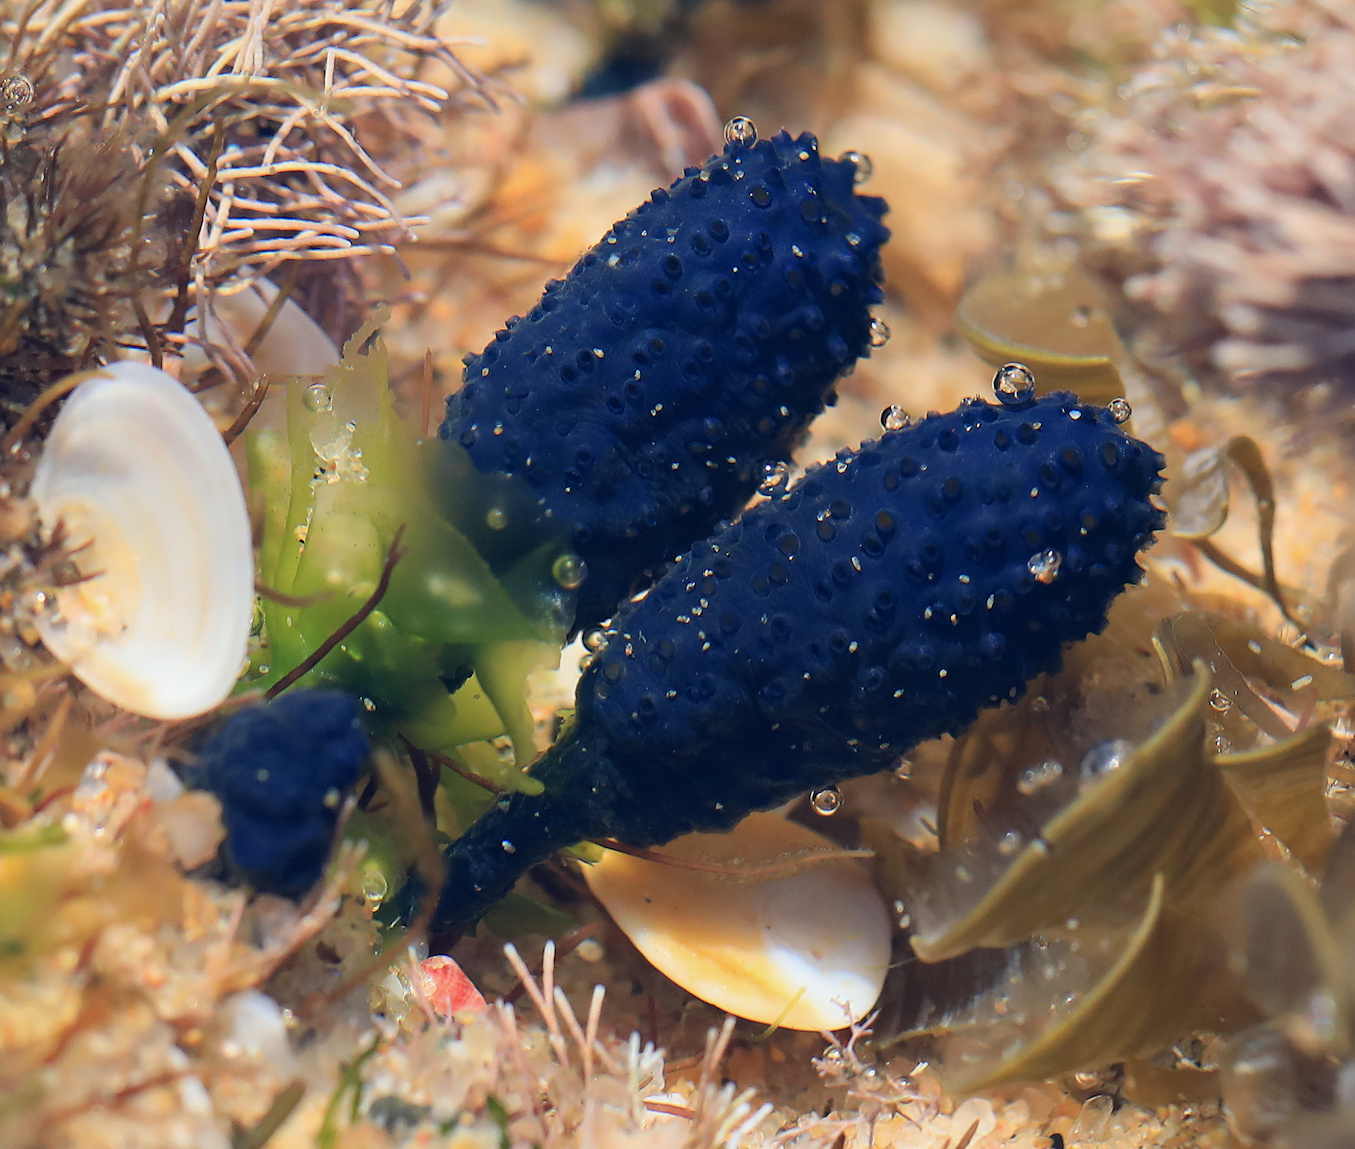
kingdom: Animalia
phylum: Chordata
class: Ascidiacea
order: Aplousobranchia
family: Polycitoridae
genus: Eudistoma
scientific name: Eudistoma caeruleum
